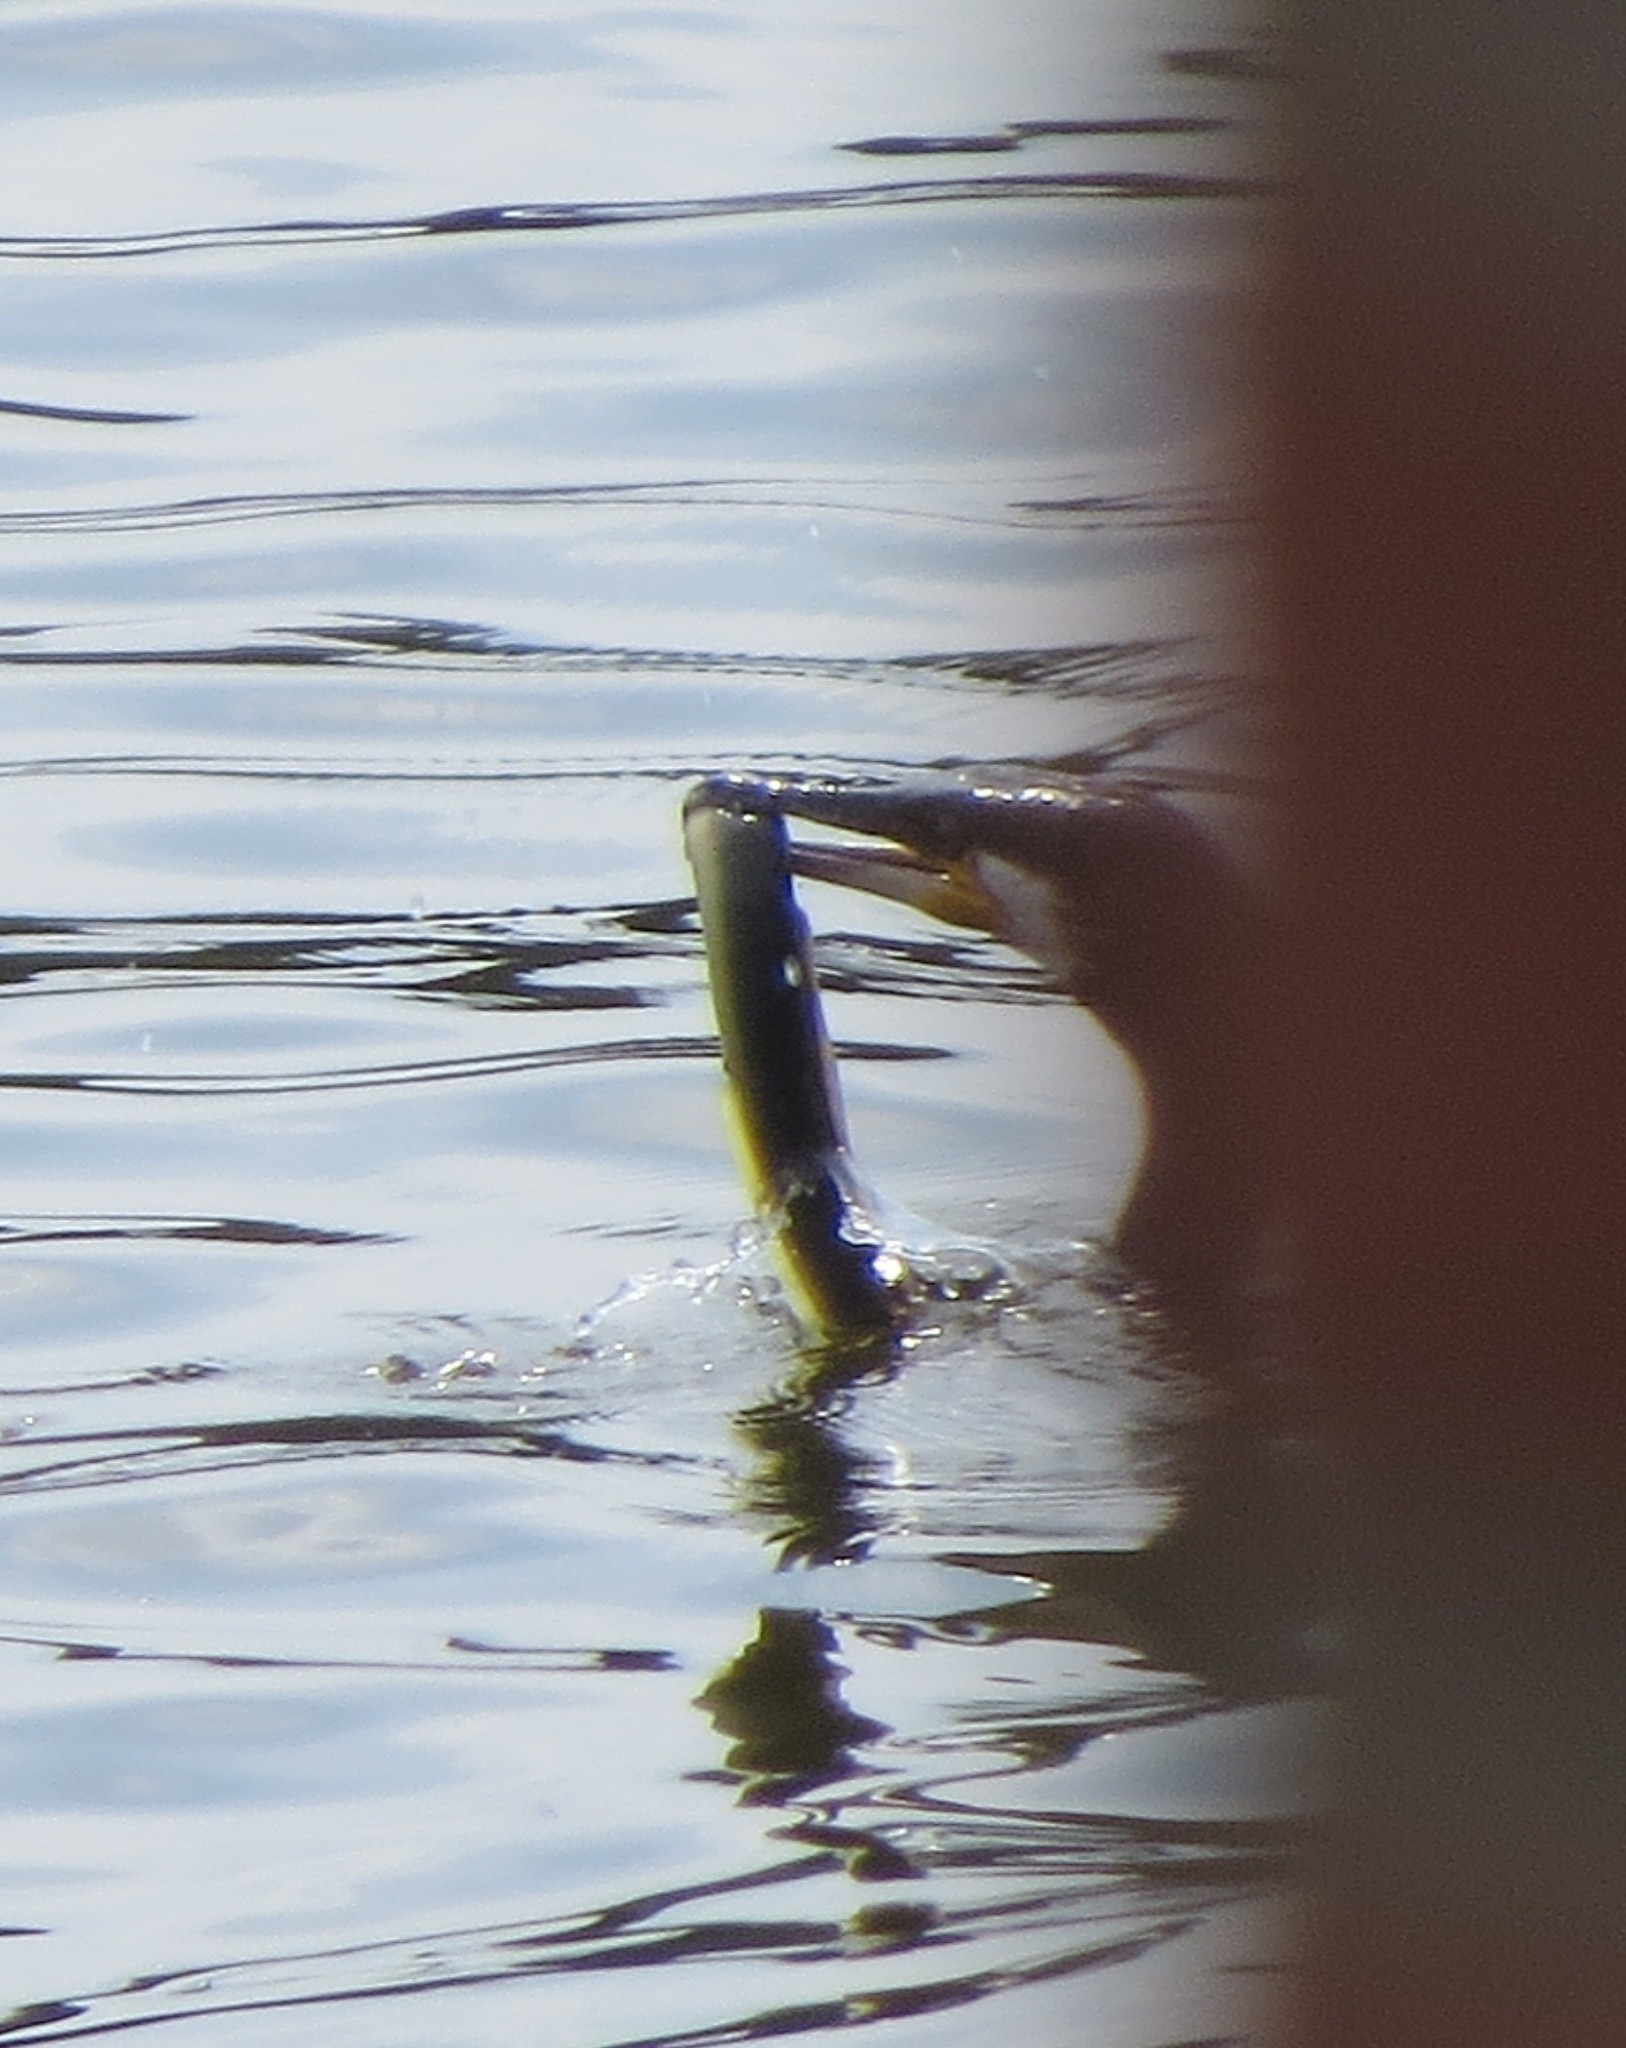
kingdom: Animalia
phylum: Chordata
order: Anguilliformes
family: Anguillidae
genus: Anguilla
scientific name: Anguilla anguilla
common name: European eel
